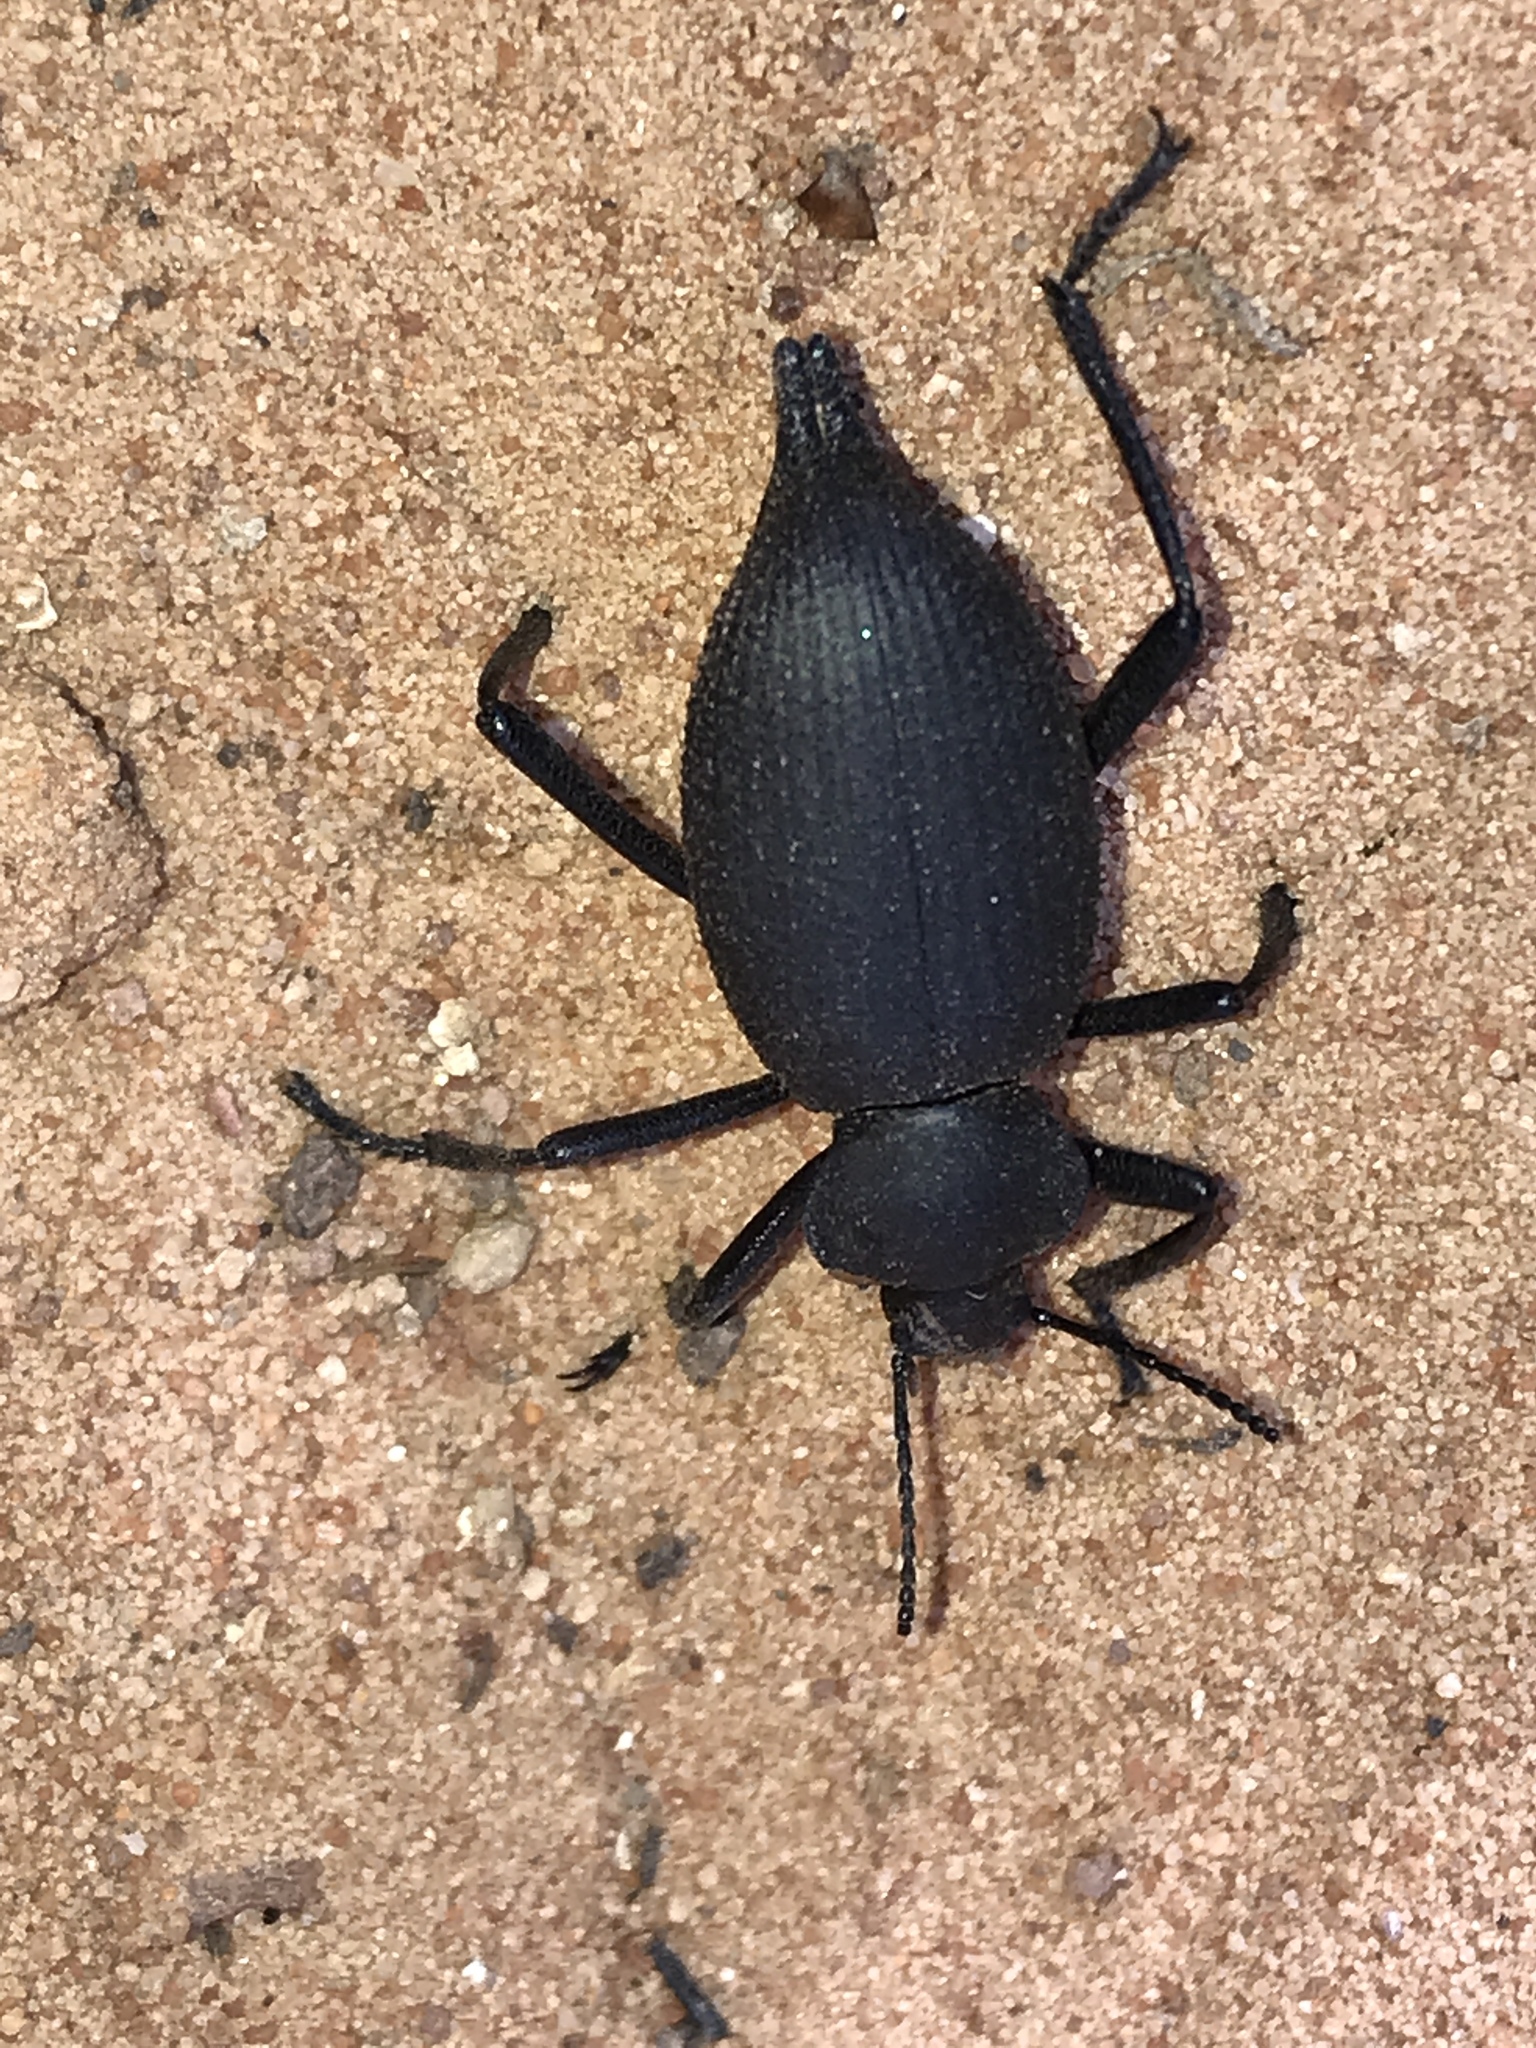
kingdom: Animalia
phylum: Arthropoda
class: Insecta
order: Coleoptera
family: Tenebrionidae
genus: Eleodes
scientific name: Eleodes caudifera
